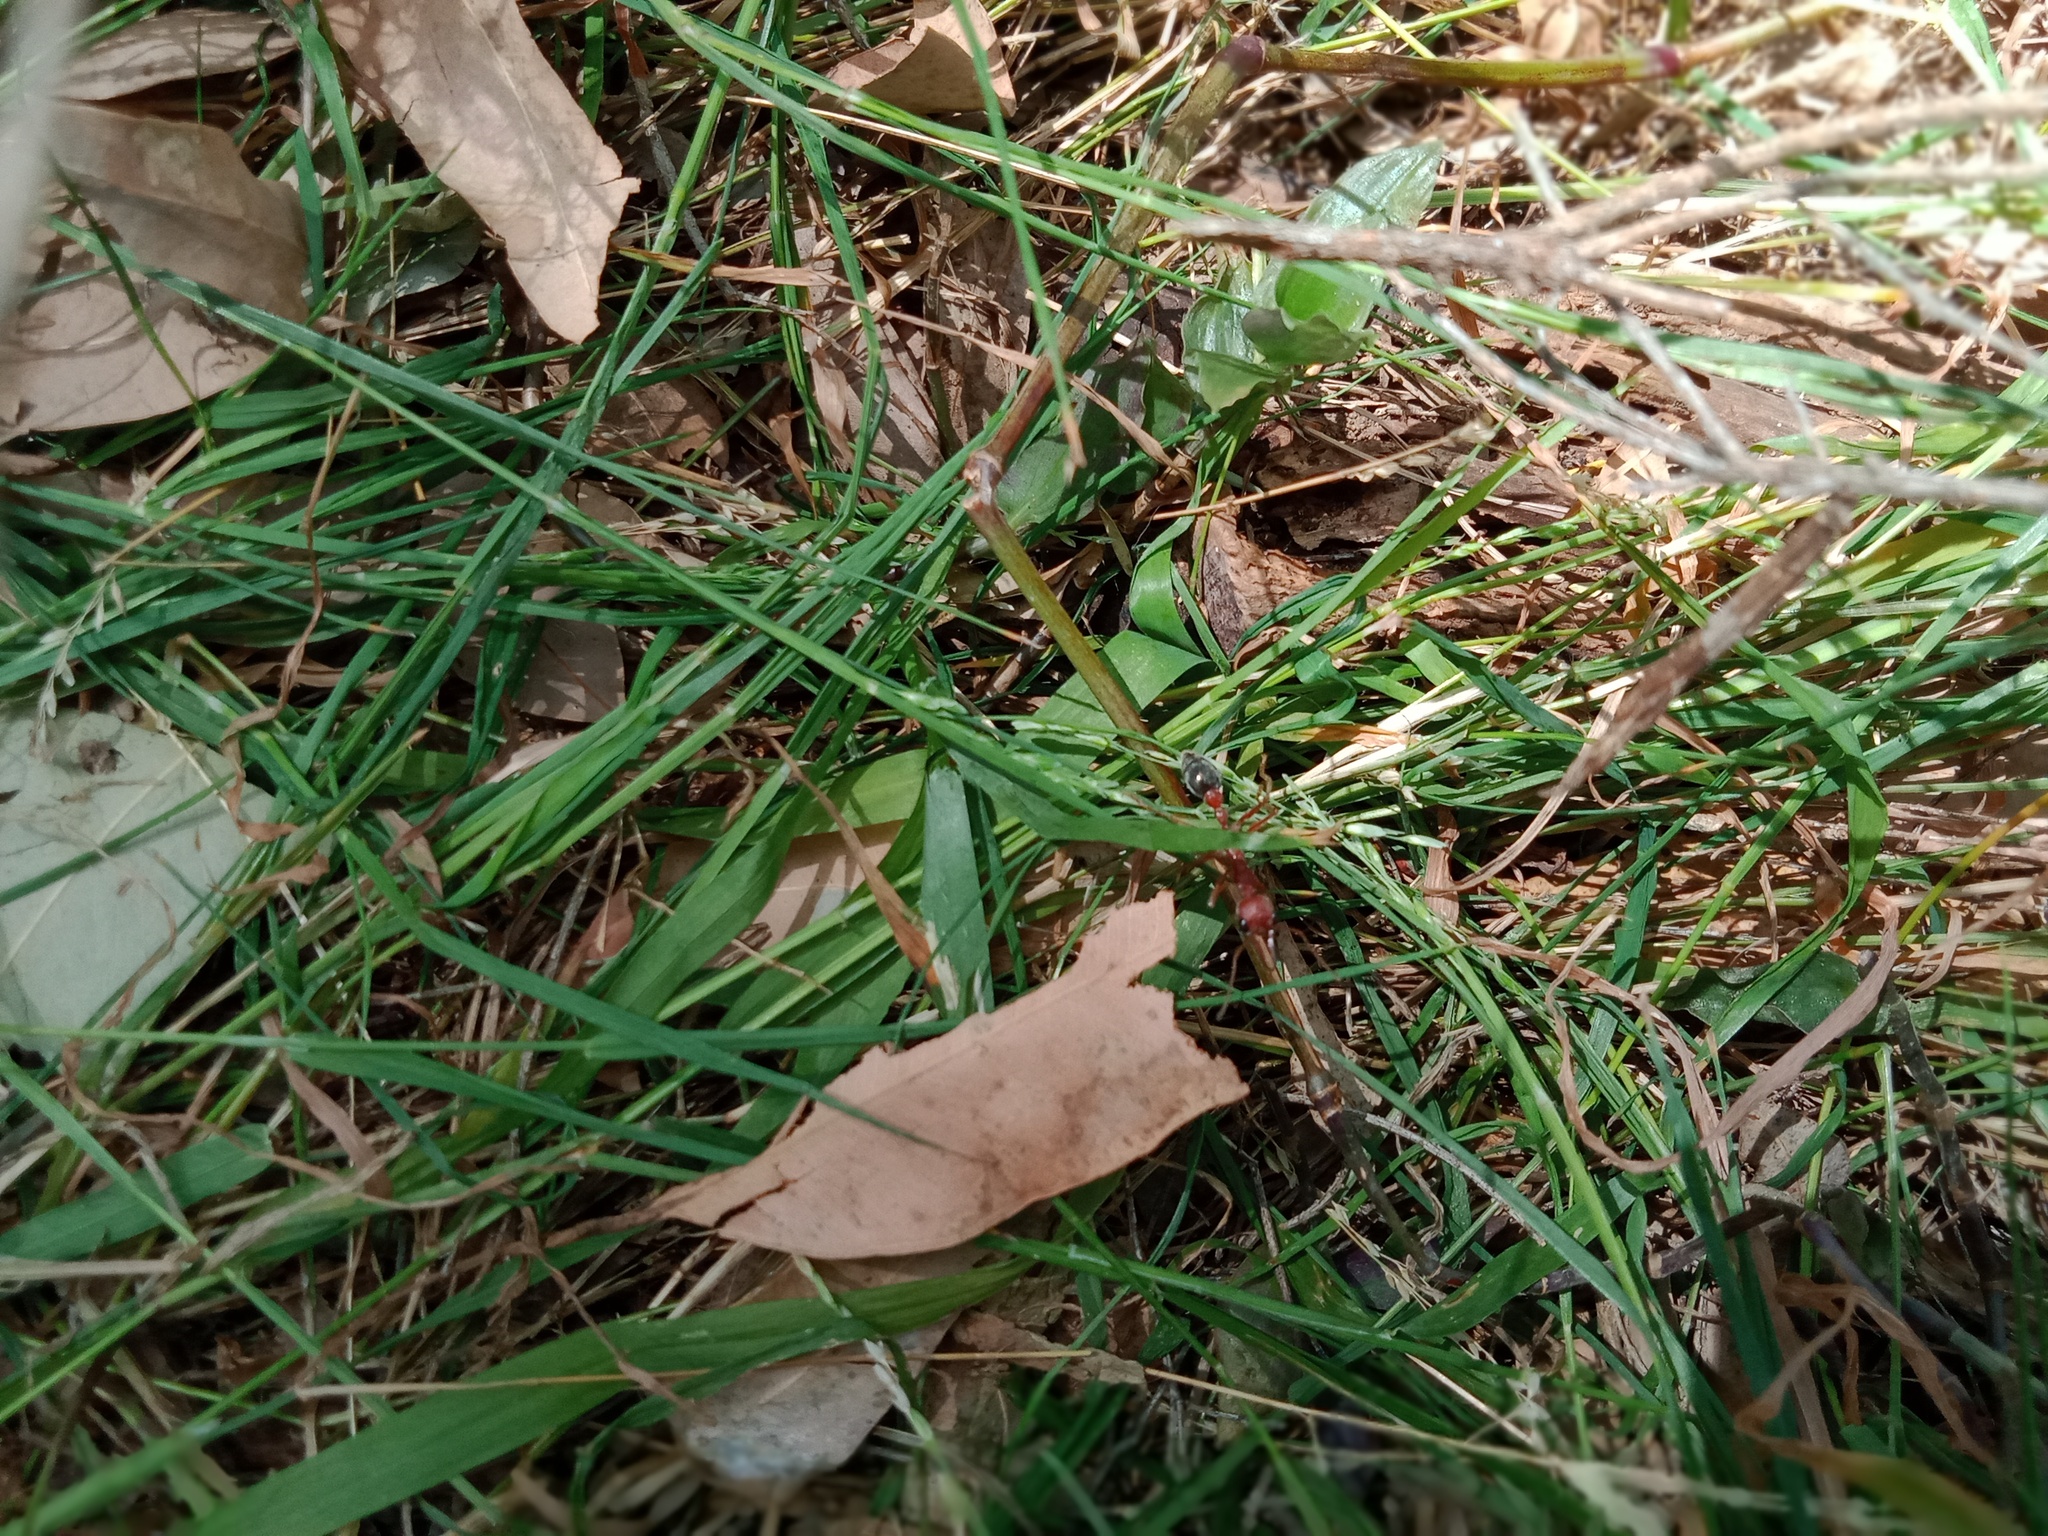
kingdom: Animalia
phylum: Arthropoda
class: Insecta
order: Hymenoptera
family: Formicidae
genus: Myrmecia
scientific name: Myrmecia brevinoda
